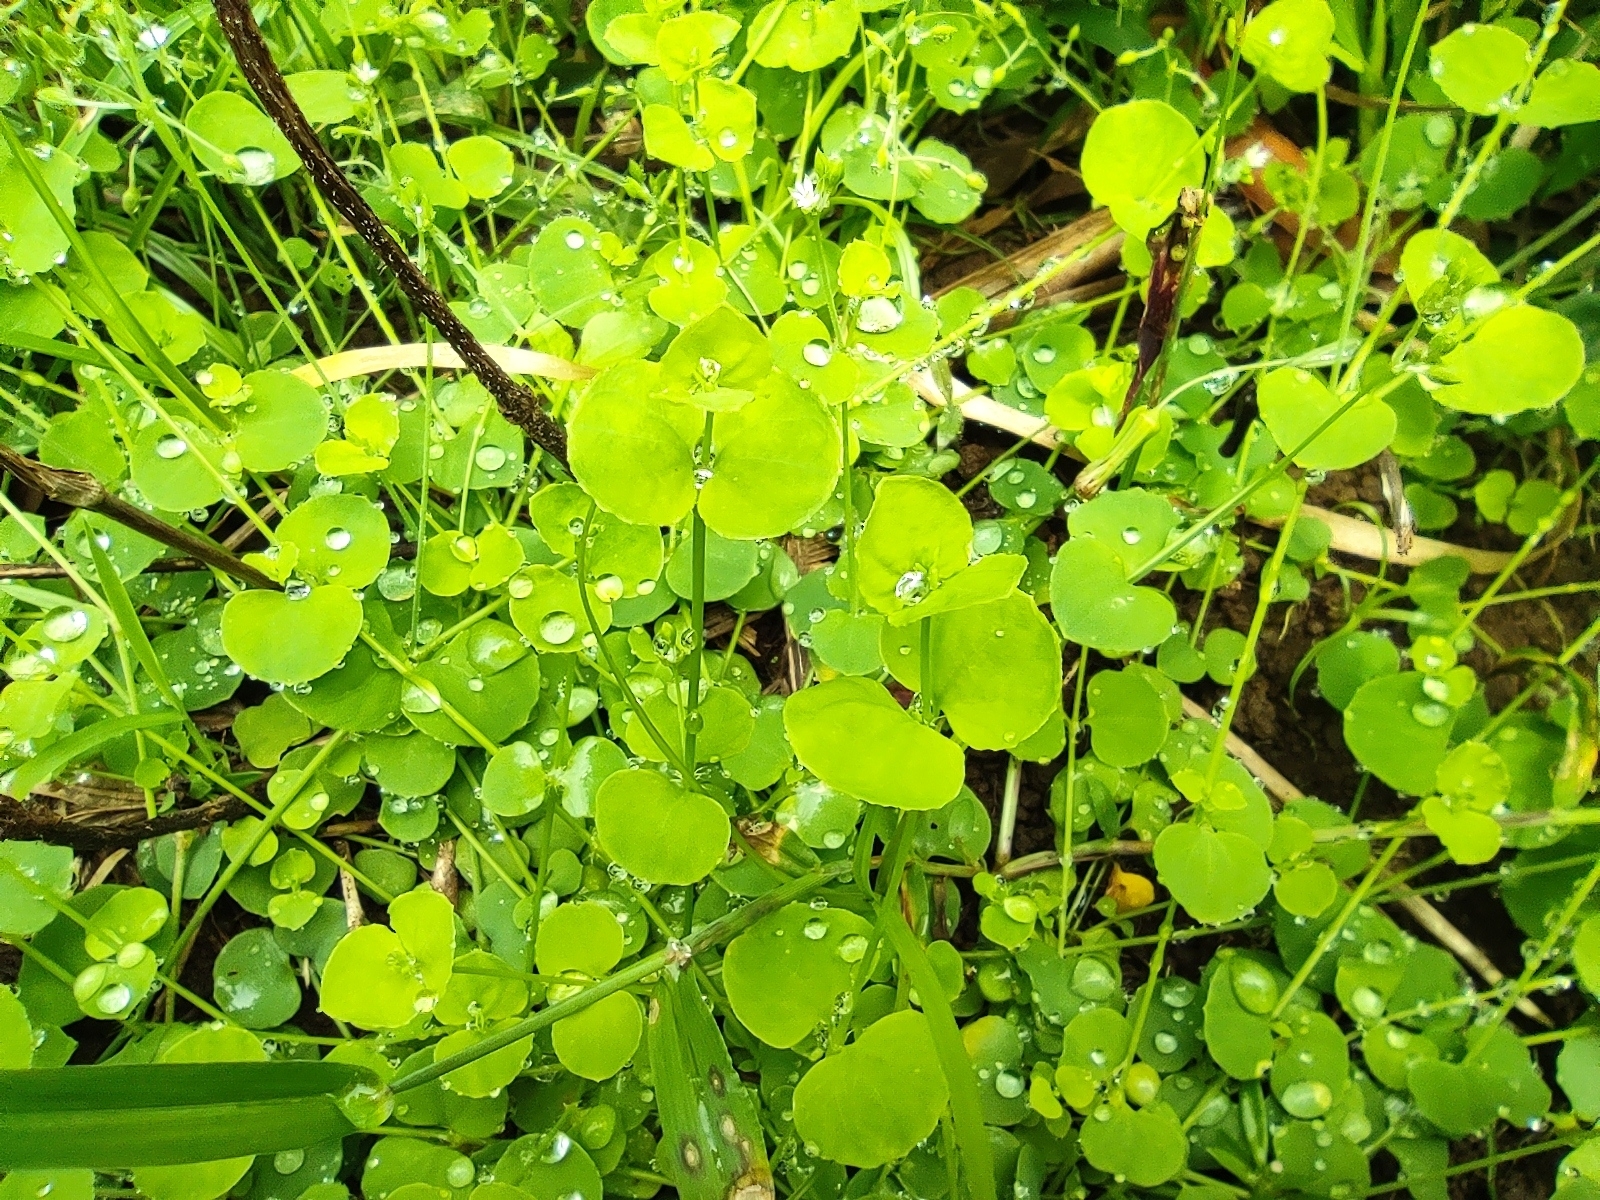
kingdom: Plantae
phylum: Tracheophyta
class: Magnoliopsida
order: Caryophyllales
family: Caryophyllaceae
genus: Drymaria
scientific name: Drymaria cordata
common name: Whitesnow
